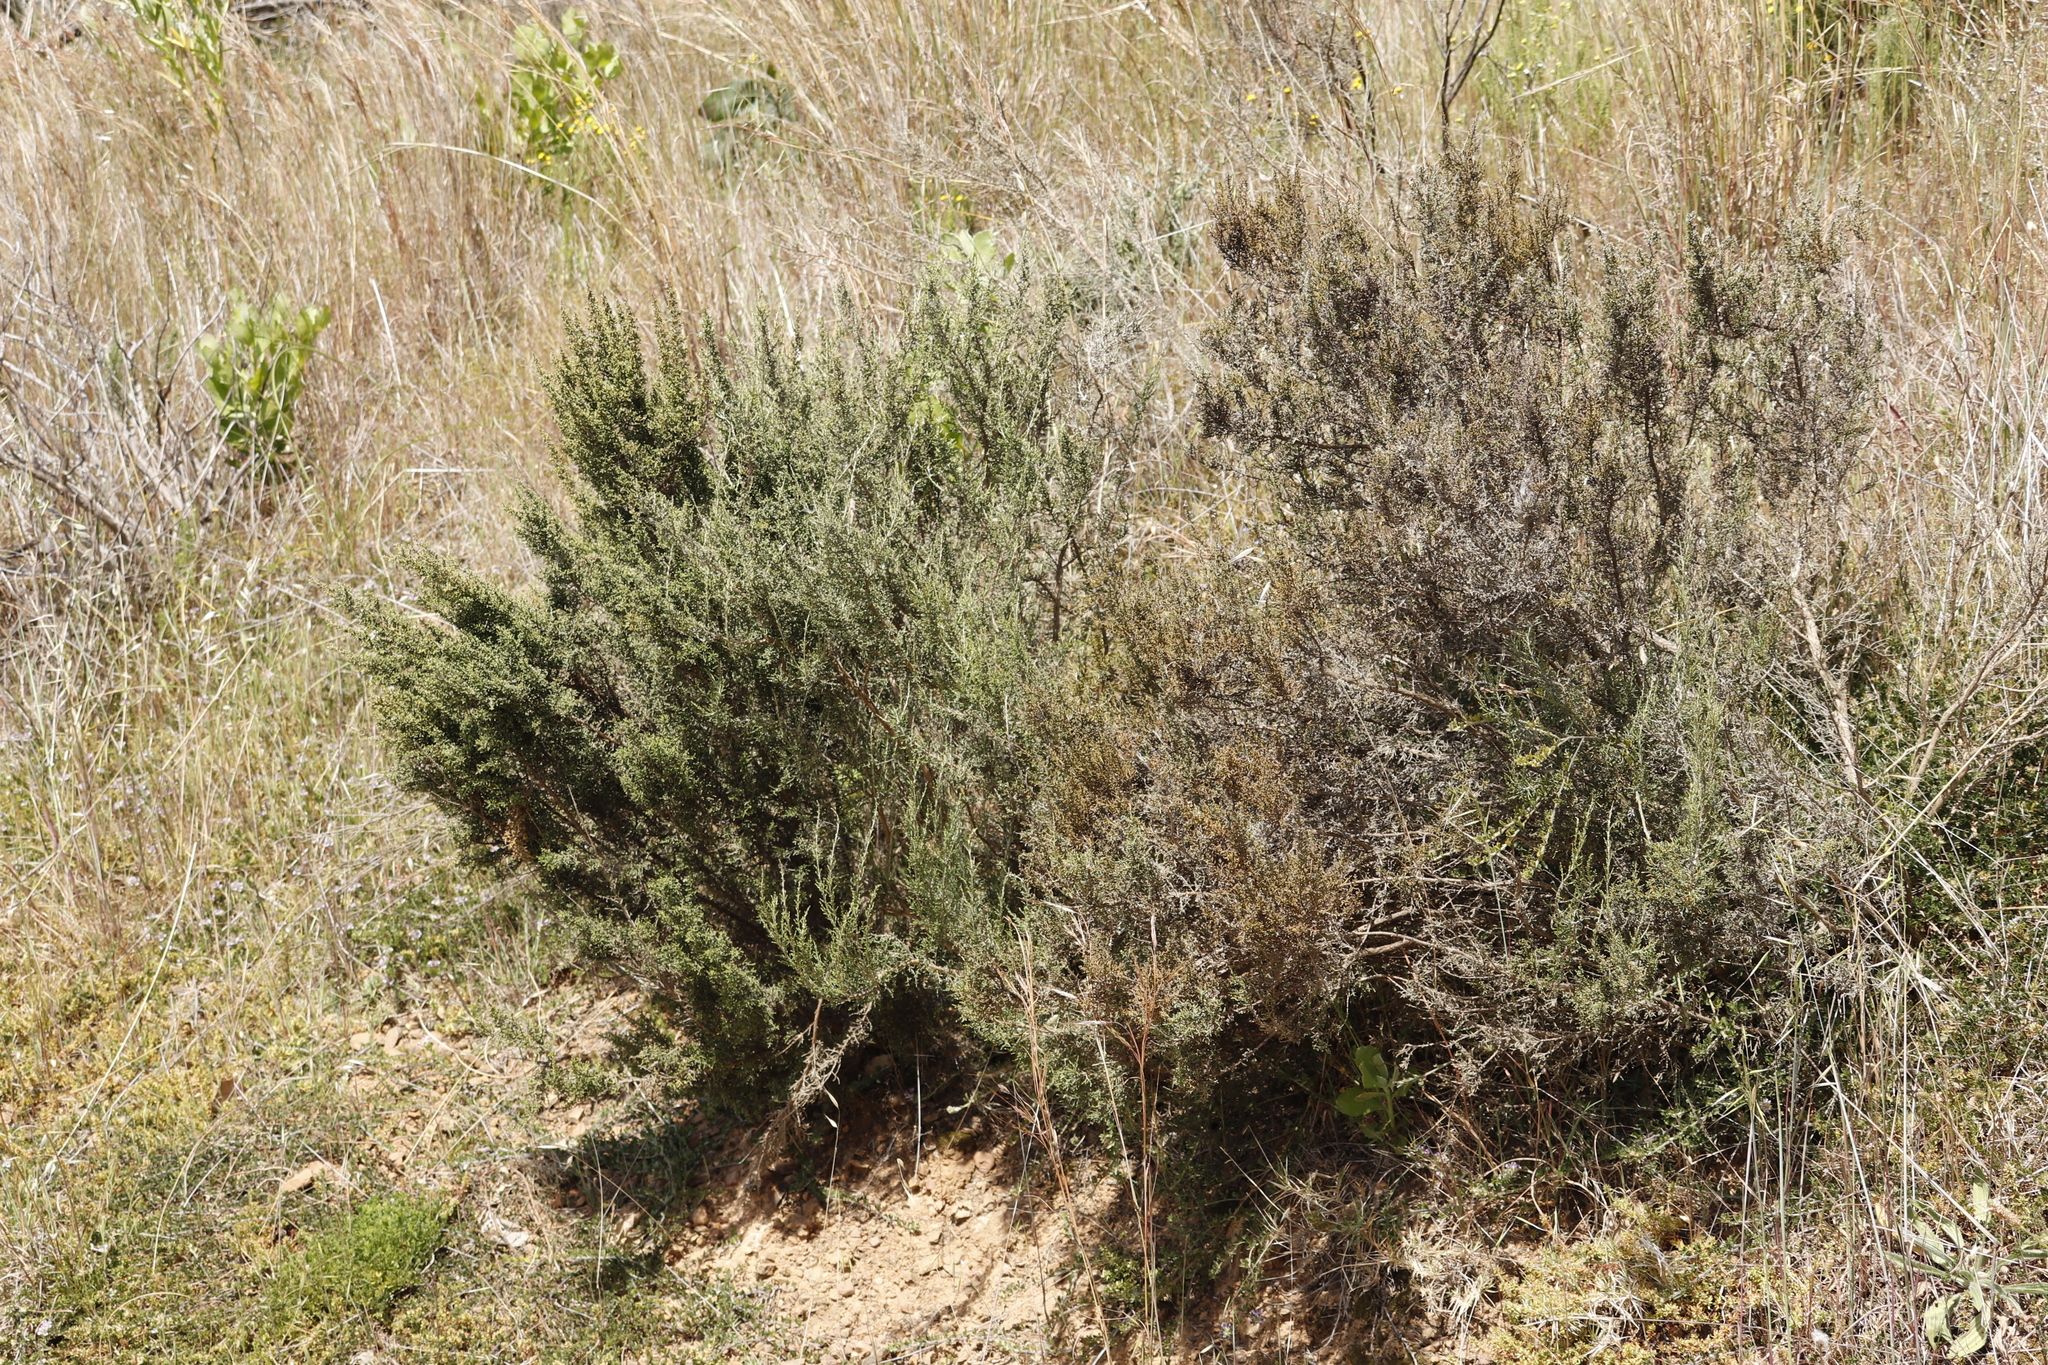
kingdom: Plantae
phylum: Tracheophyta
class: Magnoliopsida
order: Asterales
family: Asteraceae
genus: Dicerothamnus
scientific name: Dicerothamnus rhinocerotis
